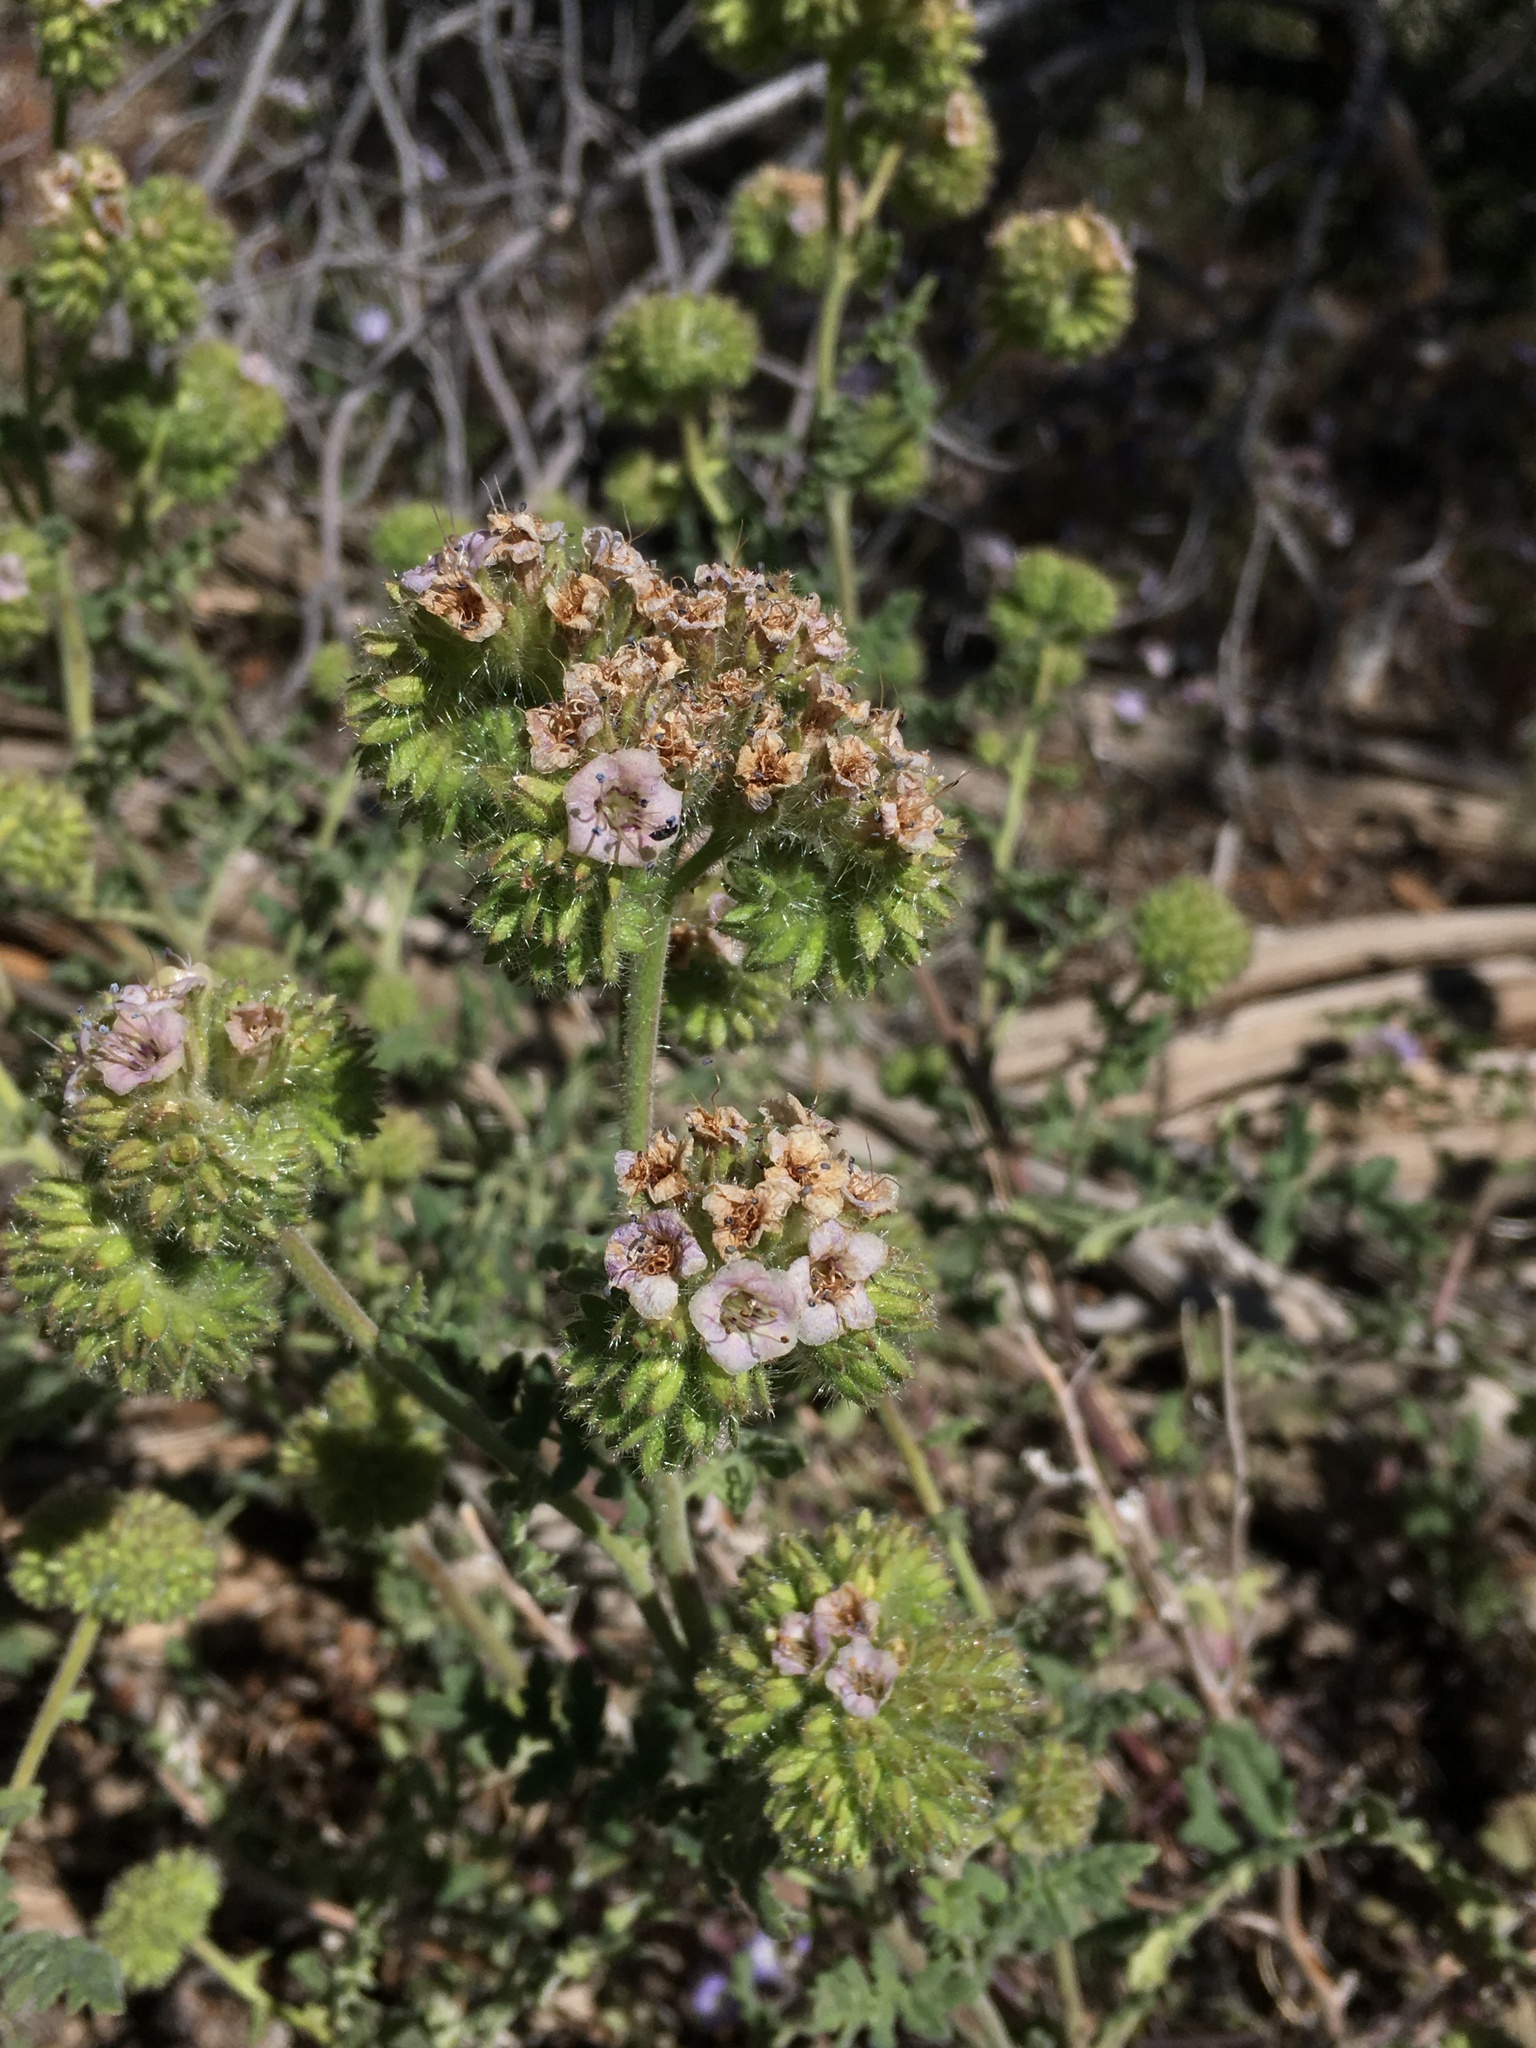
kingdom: Plantae
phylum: Tracheophyta
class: Magnoliopsida
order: Boraginales
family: Hydrophyllaceae
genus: Phacelia
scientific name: Phacelia ramosissima
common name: Branching phacelia
